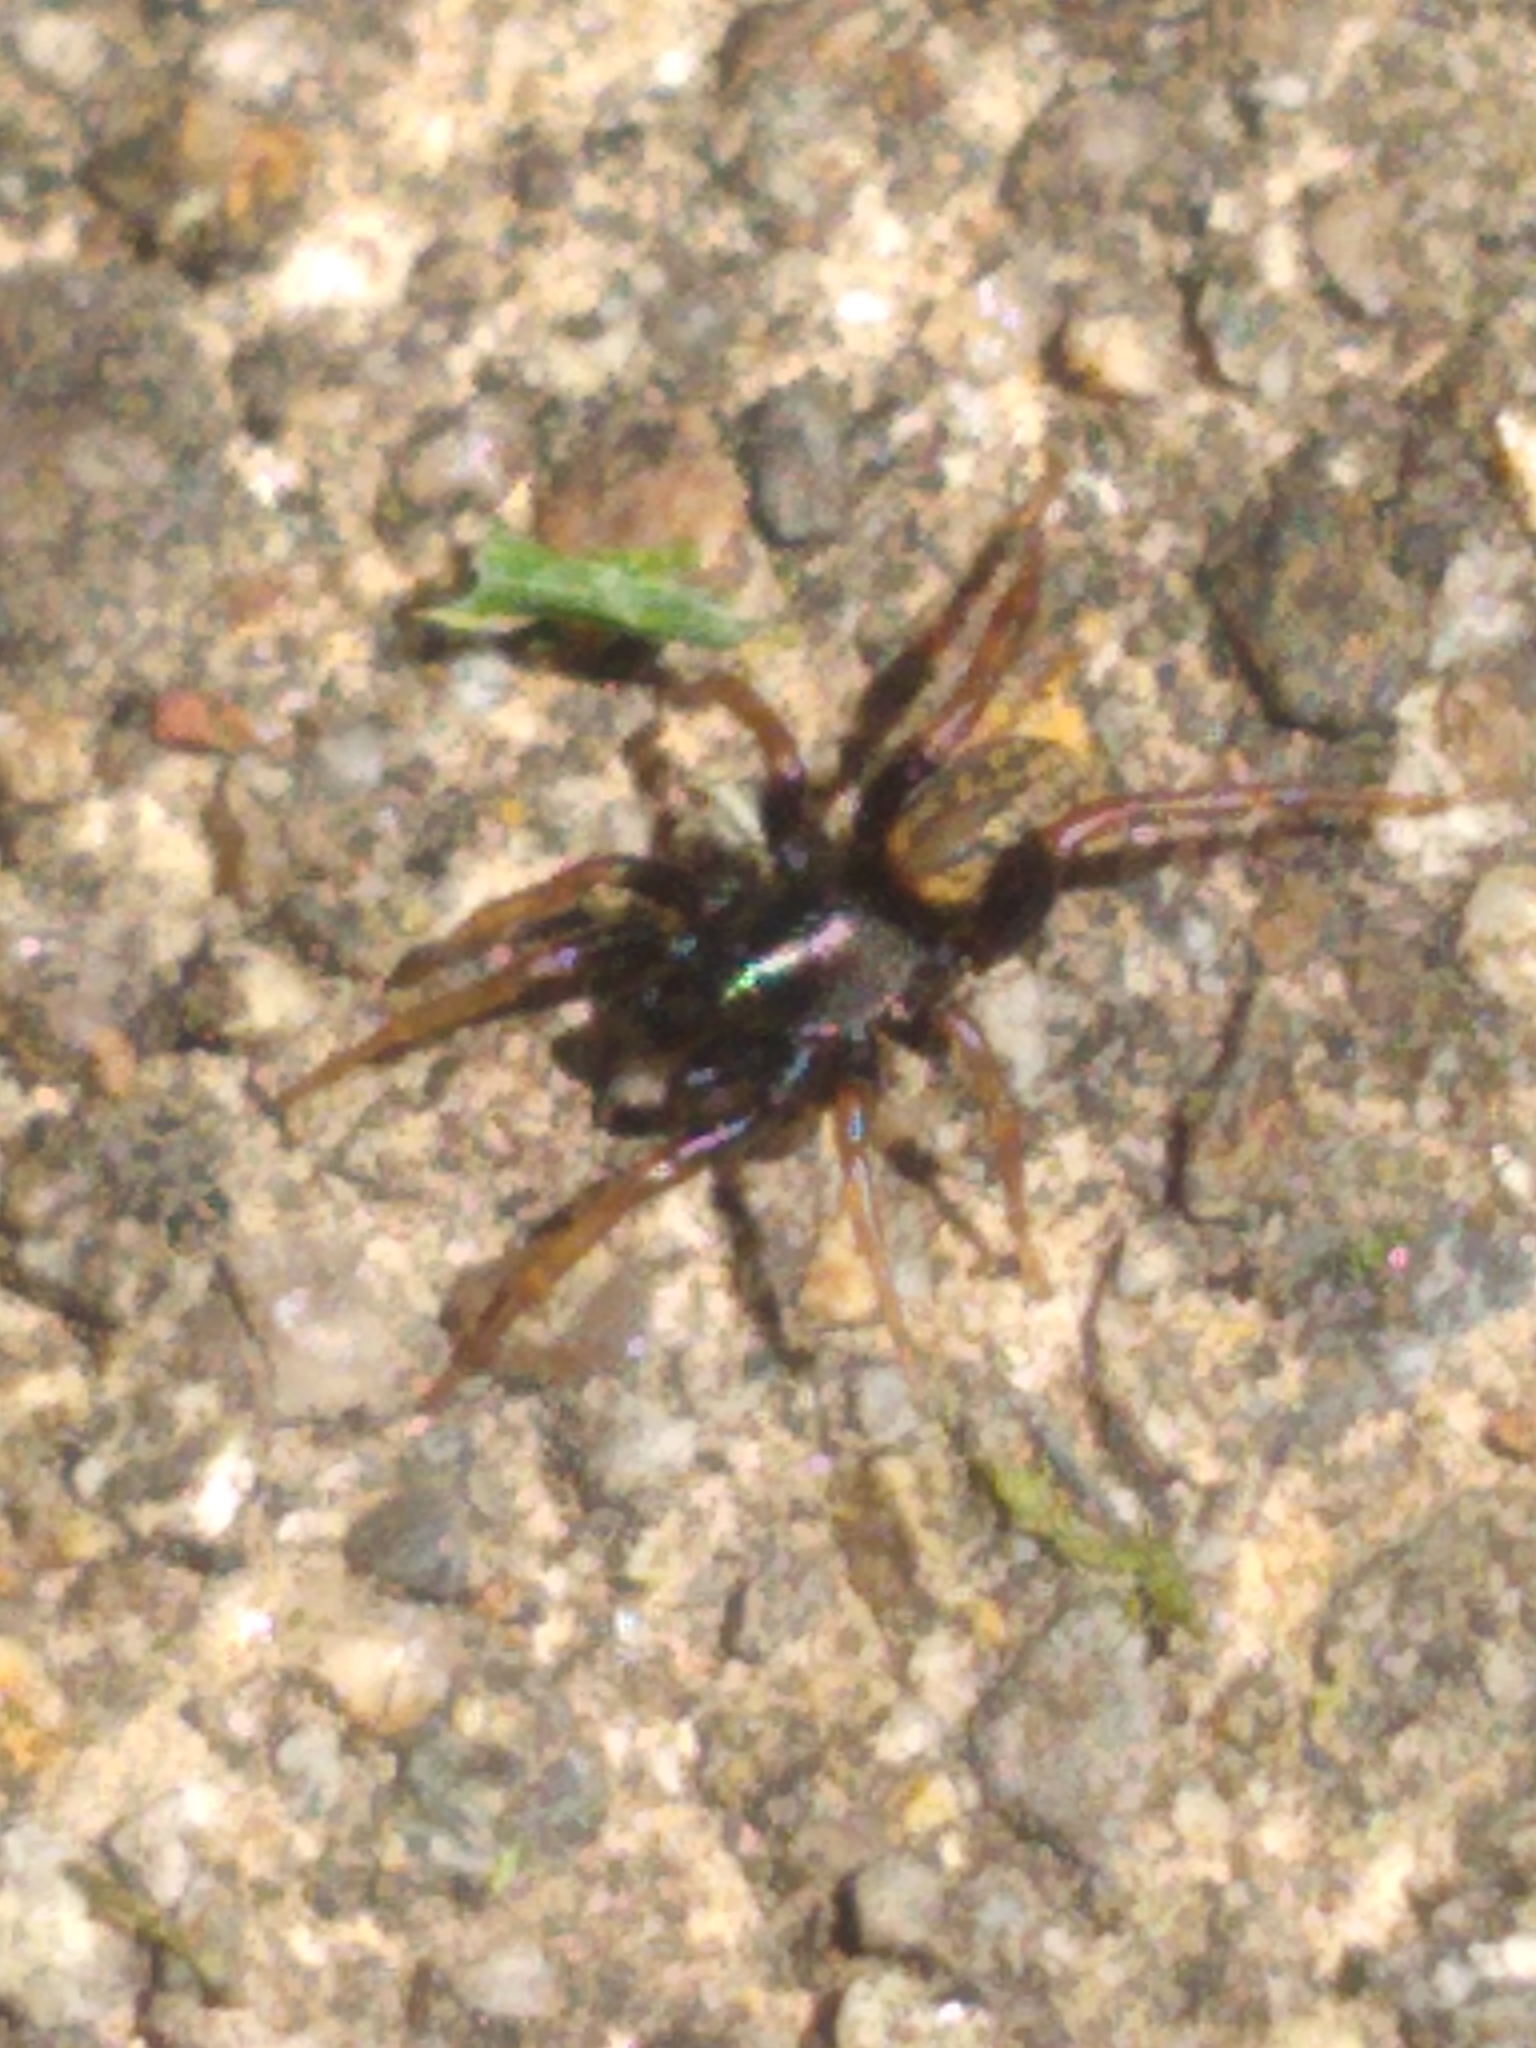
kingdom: Animalia
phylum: Arthropoda
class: Arachnida
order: Araneae
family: Lycosidae
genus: Allocosa
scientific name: Allocosa funerea
